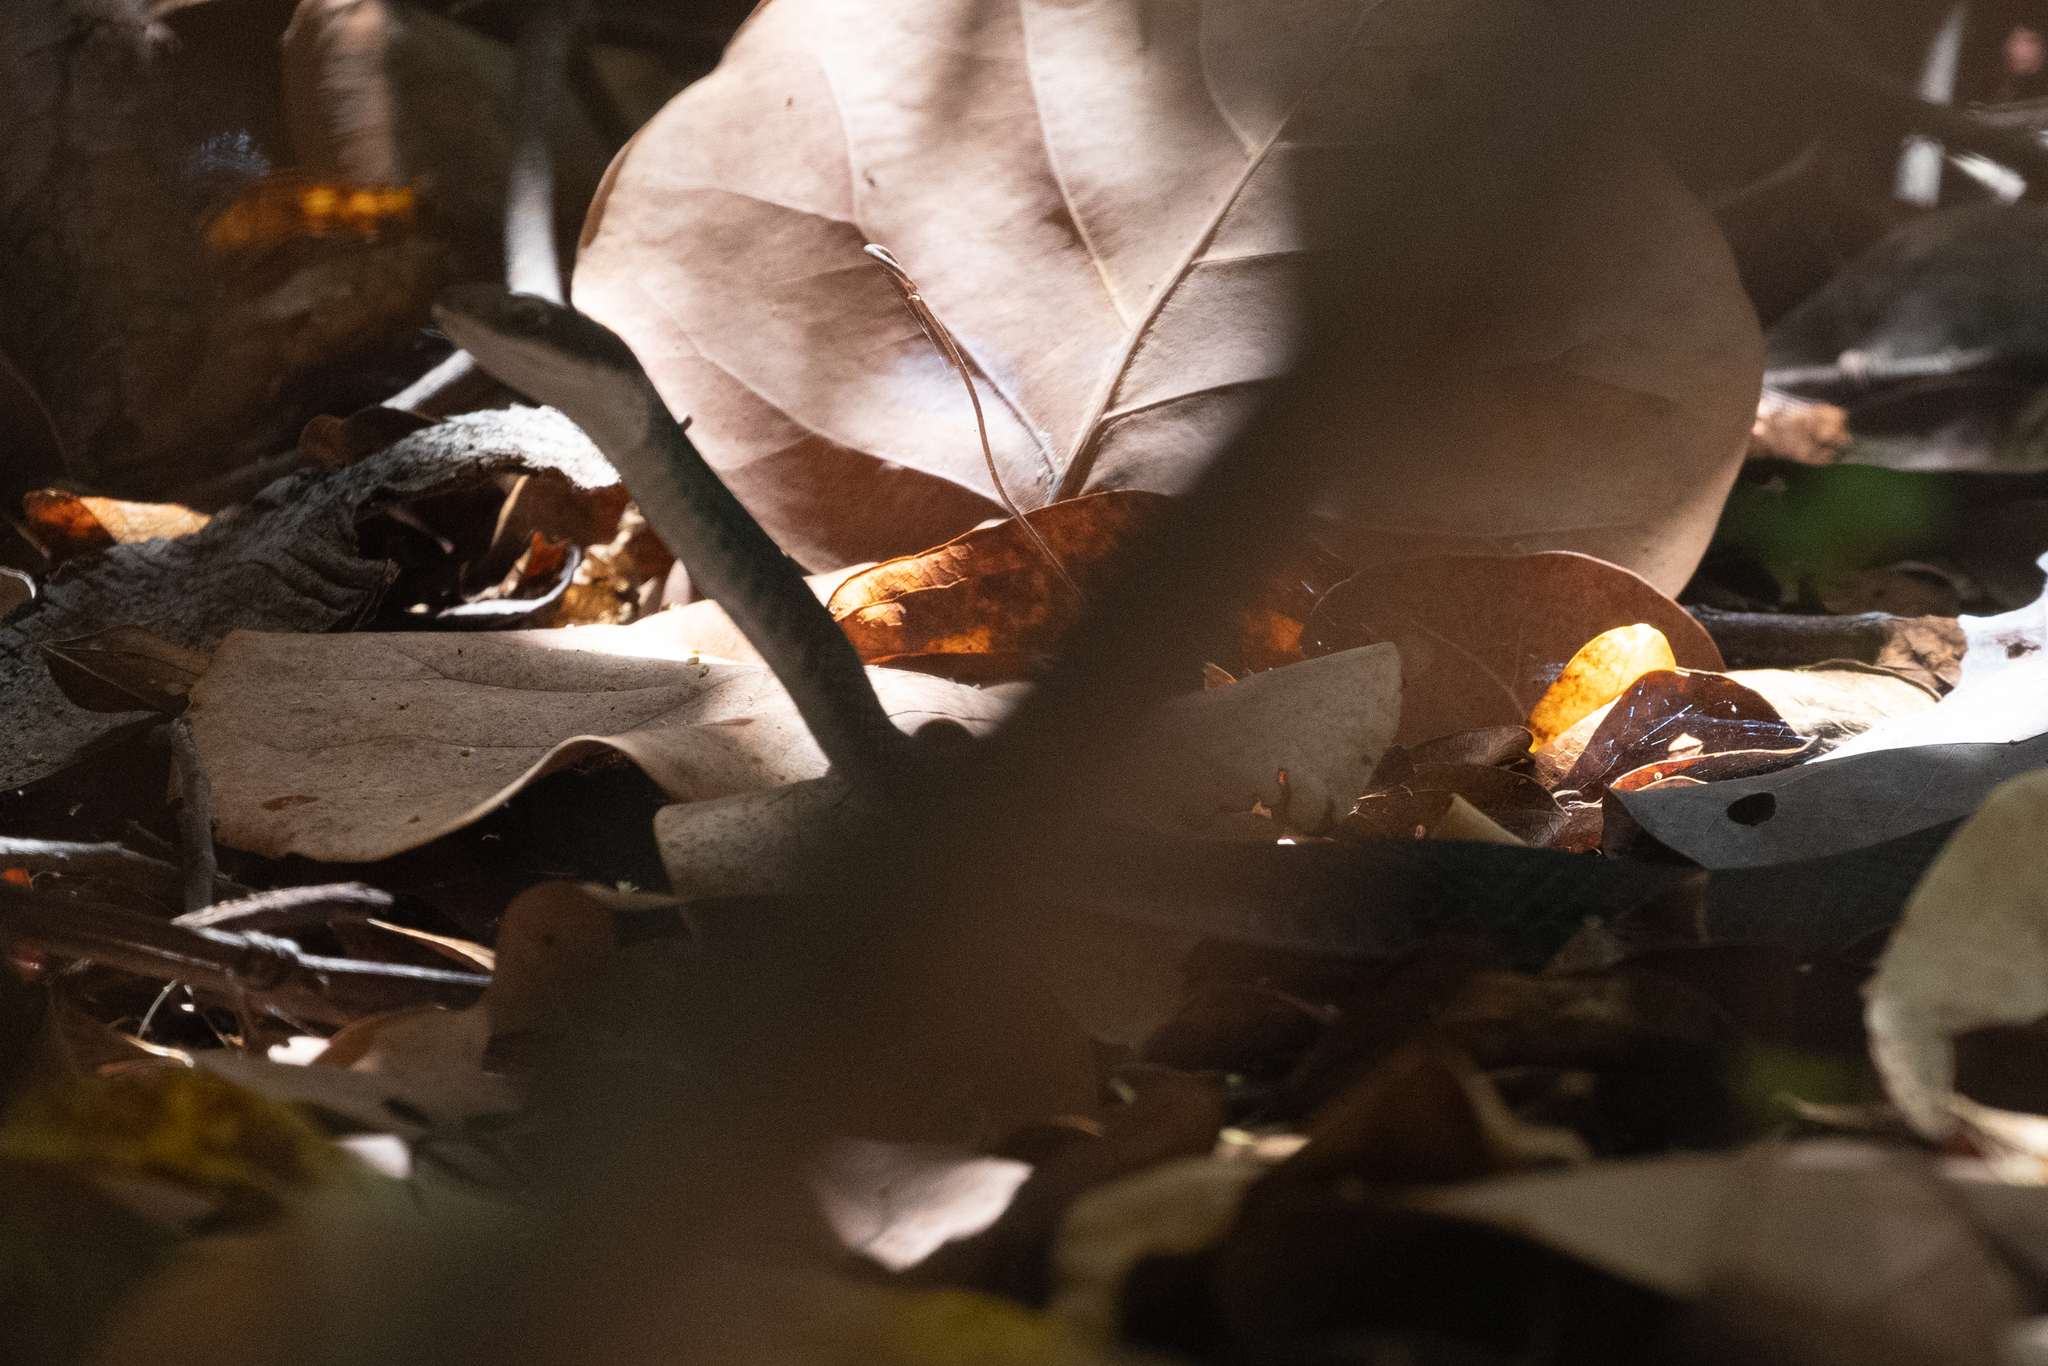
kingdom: Animalia
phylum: Chordata
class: Squamata
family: Colubridae
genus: Coluber
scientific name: Coluber constrictor
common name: Eastern racer
